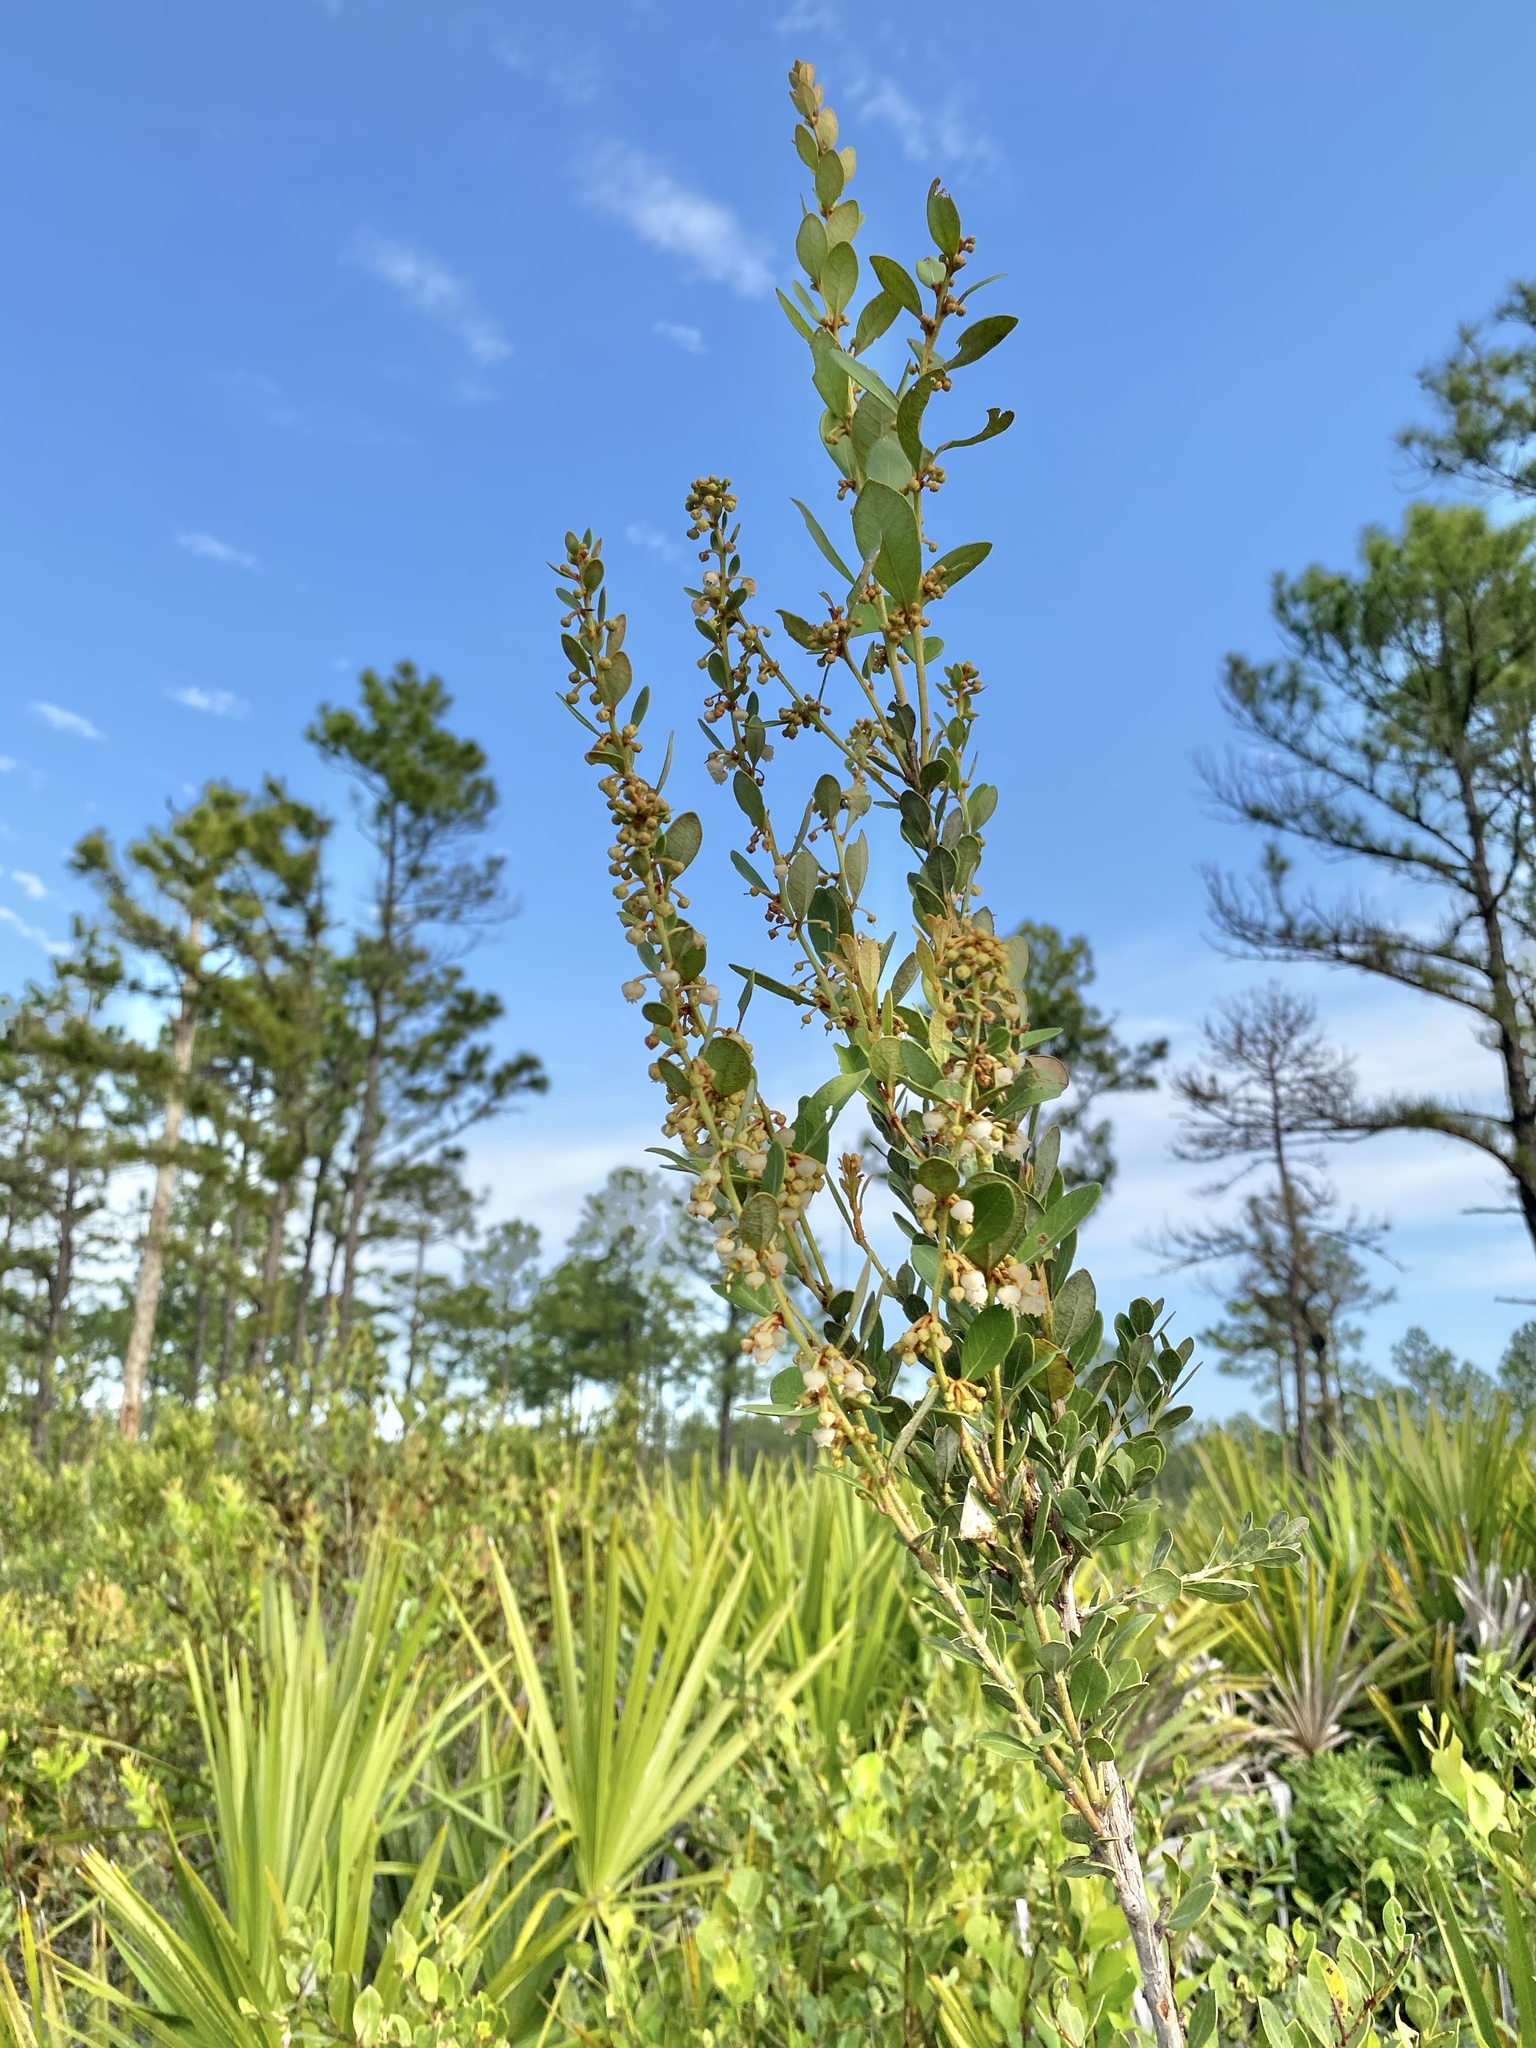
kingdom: Plantae
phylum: Tracheophyta
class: Magnoliopsida
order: Ericales
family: Ericaceae
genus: Lyonia
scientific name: Lyonia fruticosa
